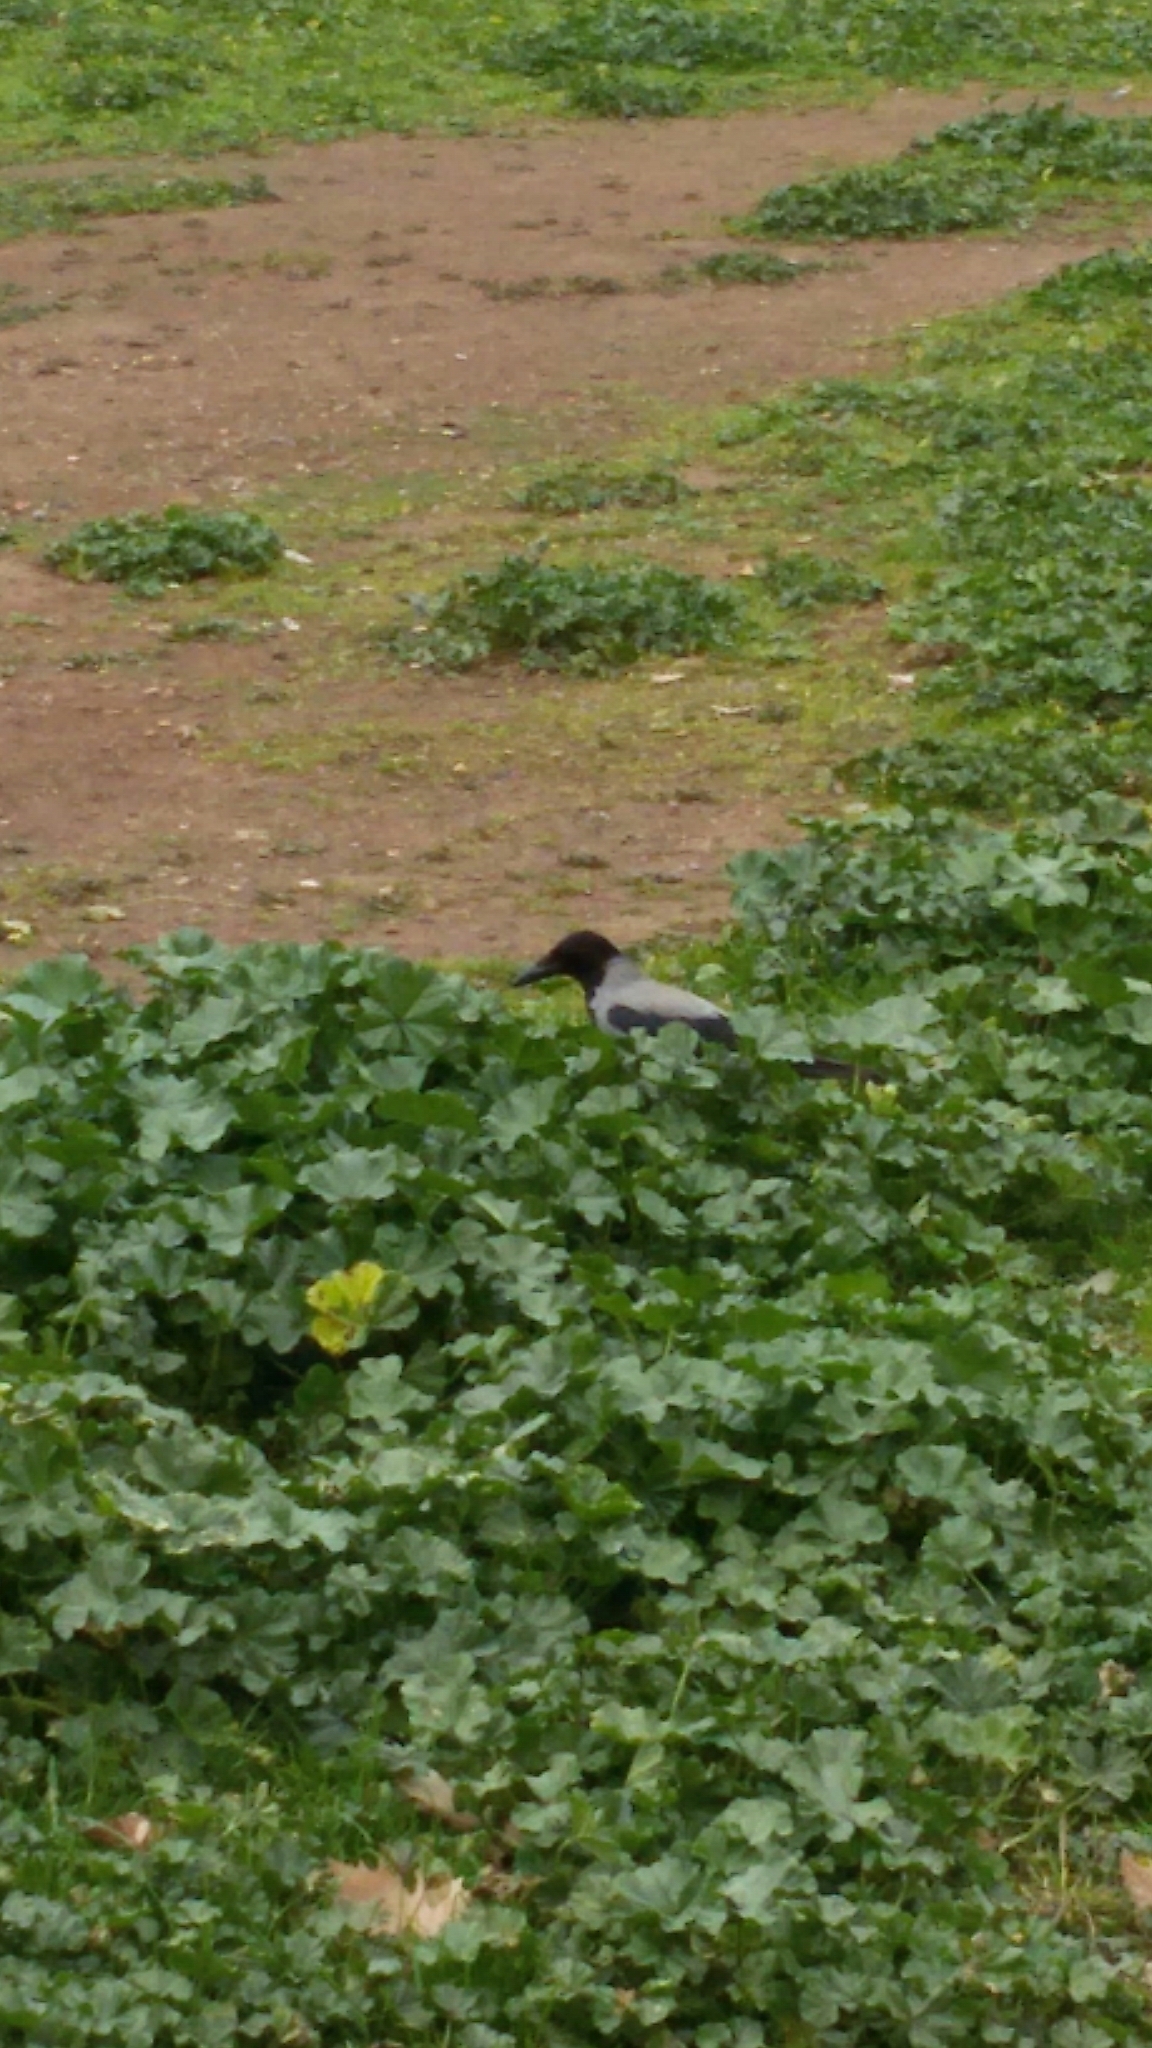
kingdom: Animalia
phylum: Chordata
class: Aves
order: Passeriformes
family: Corvidae
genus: Corvus
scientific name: Corvus cornix
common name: Hooded crow
